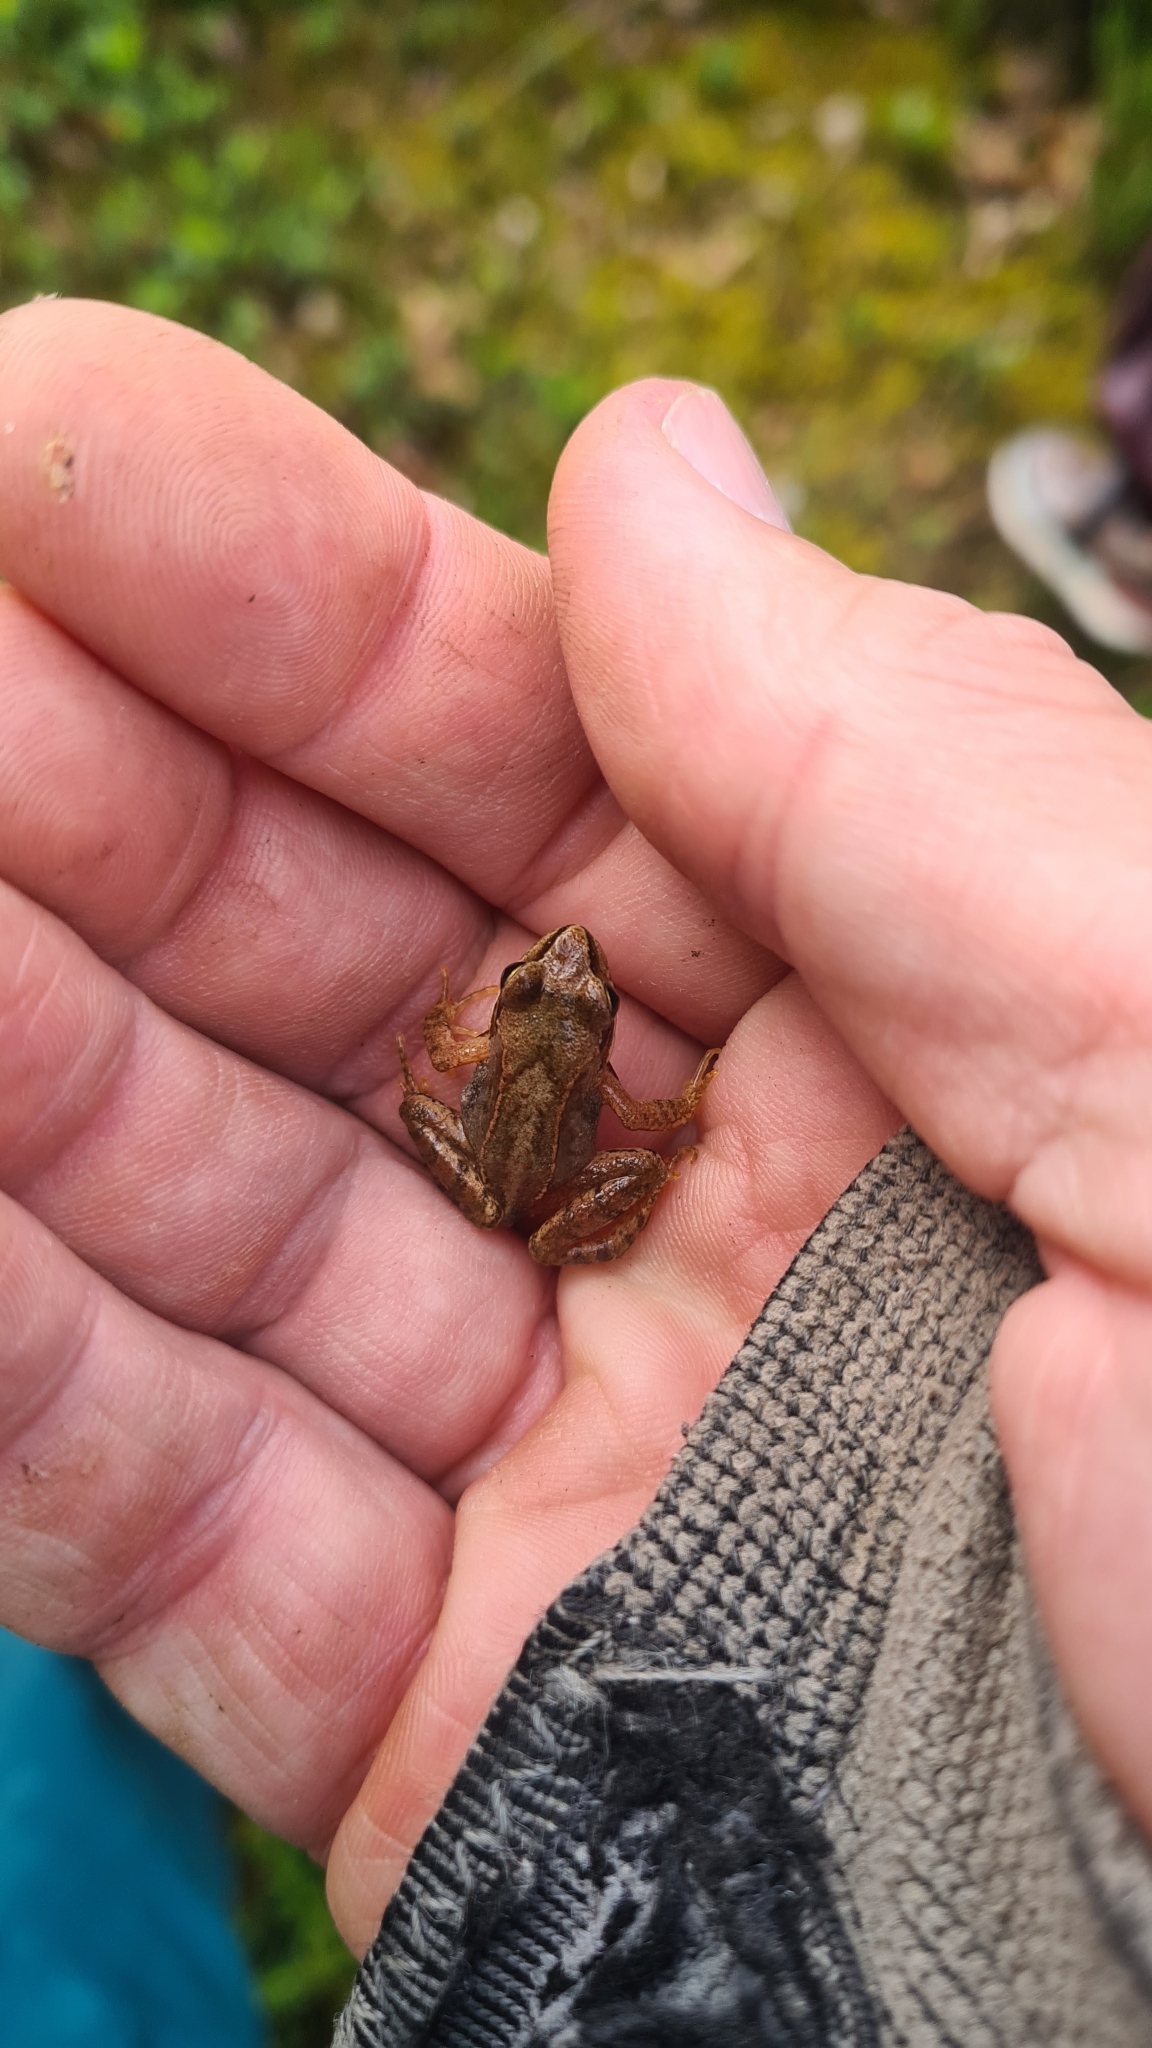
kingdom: Animalia
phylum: Chordata
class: Amphibia
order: Anura
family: Ranidae
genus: Rana
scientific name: Rana temporaria
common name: Common frog
